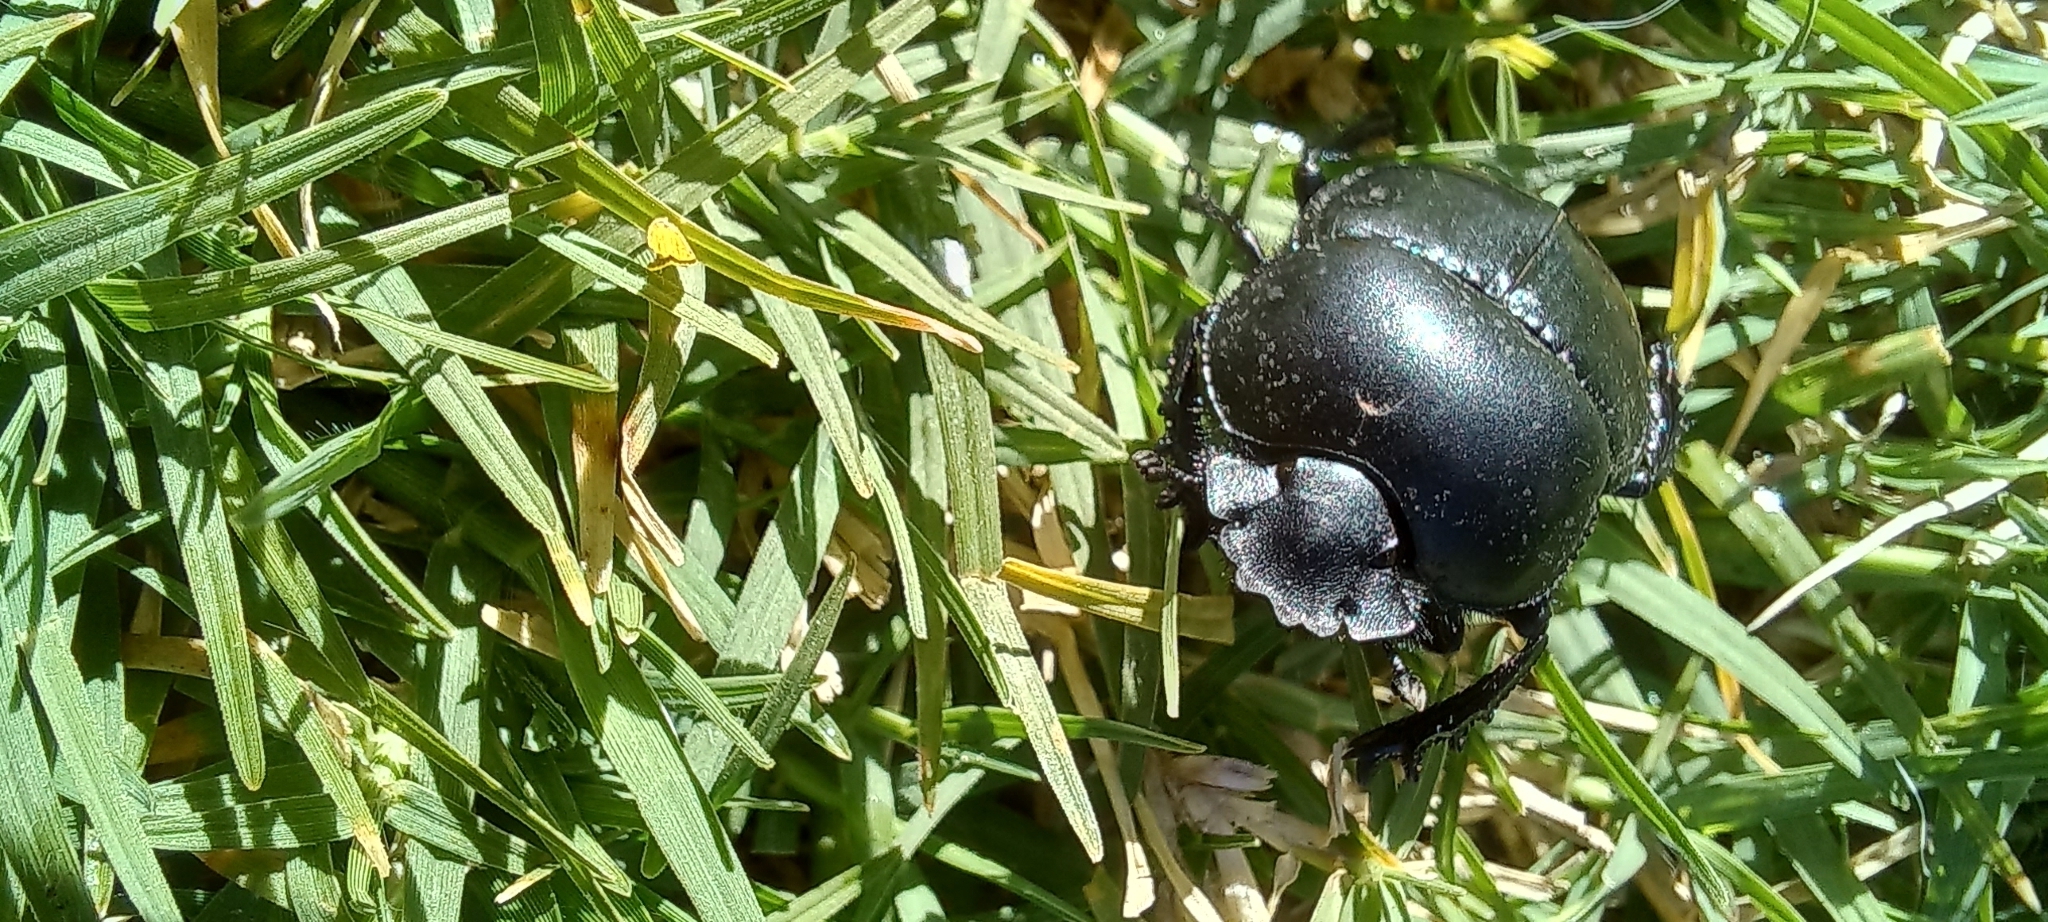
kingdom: Animalia
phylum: Arthropoda
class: Insecta
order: Coleoptera
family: Scarabaeidae
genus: Scarabaeus
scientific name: Scarabaeus convexus
